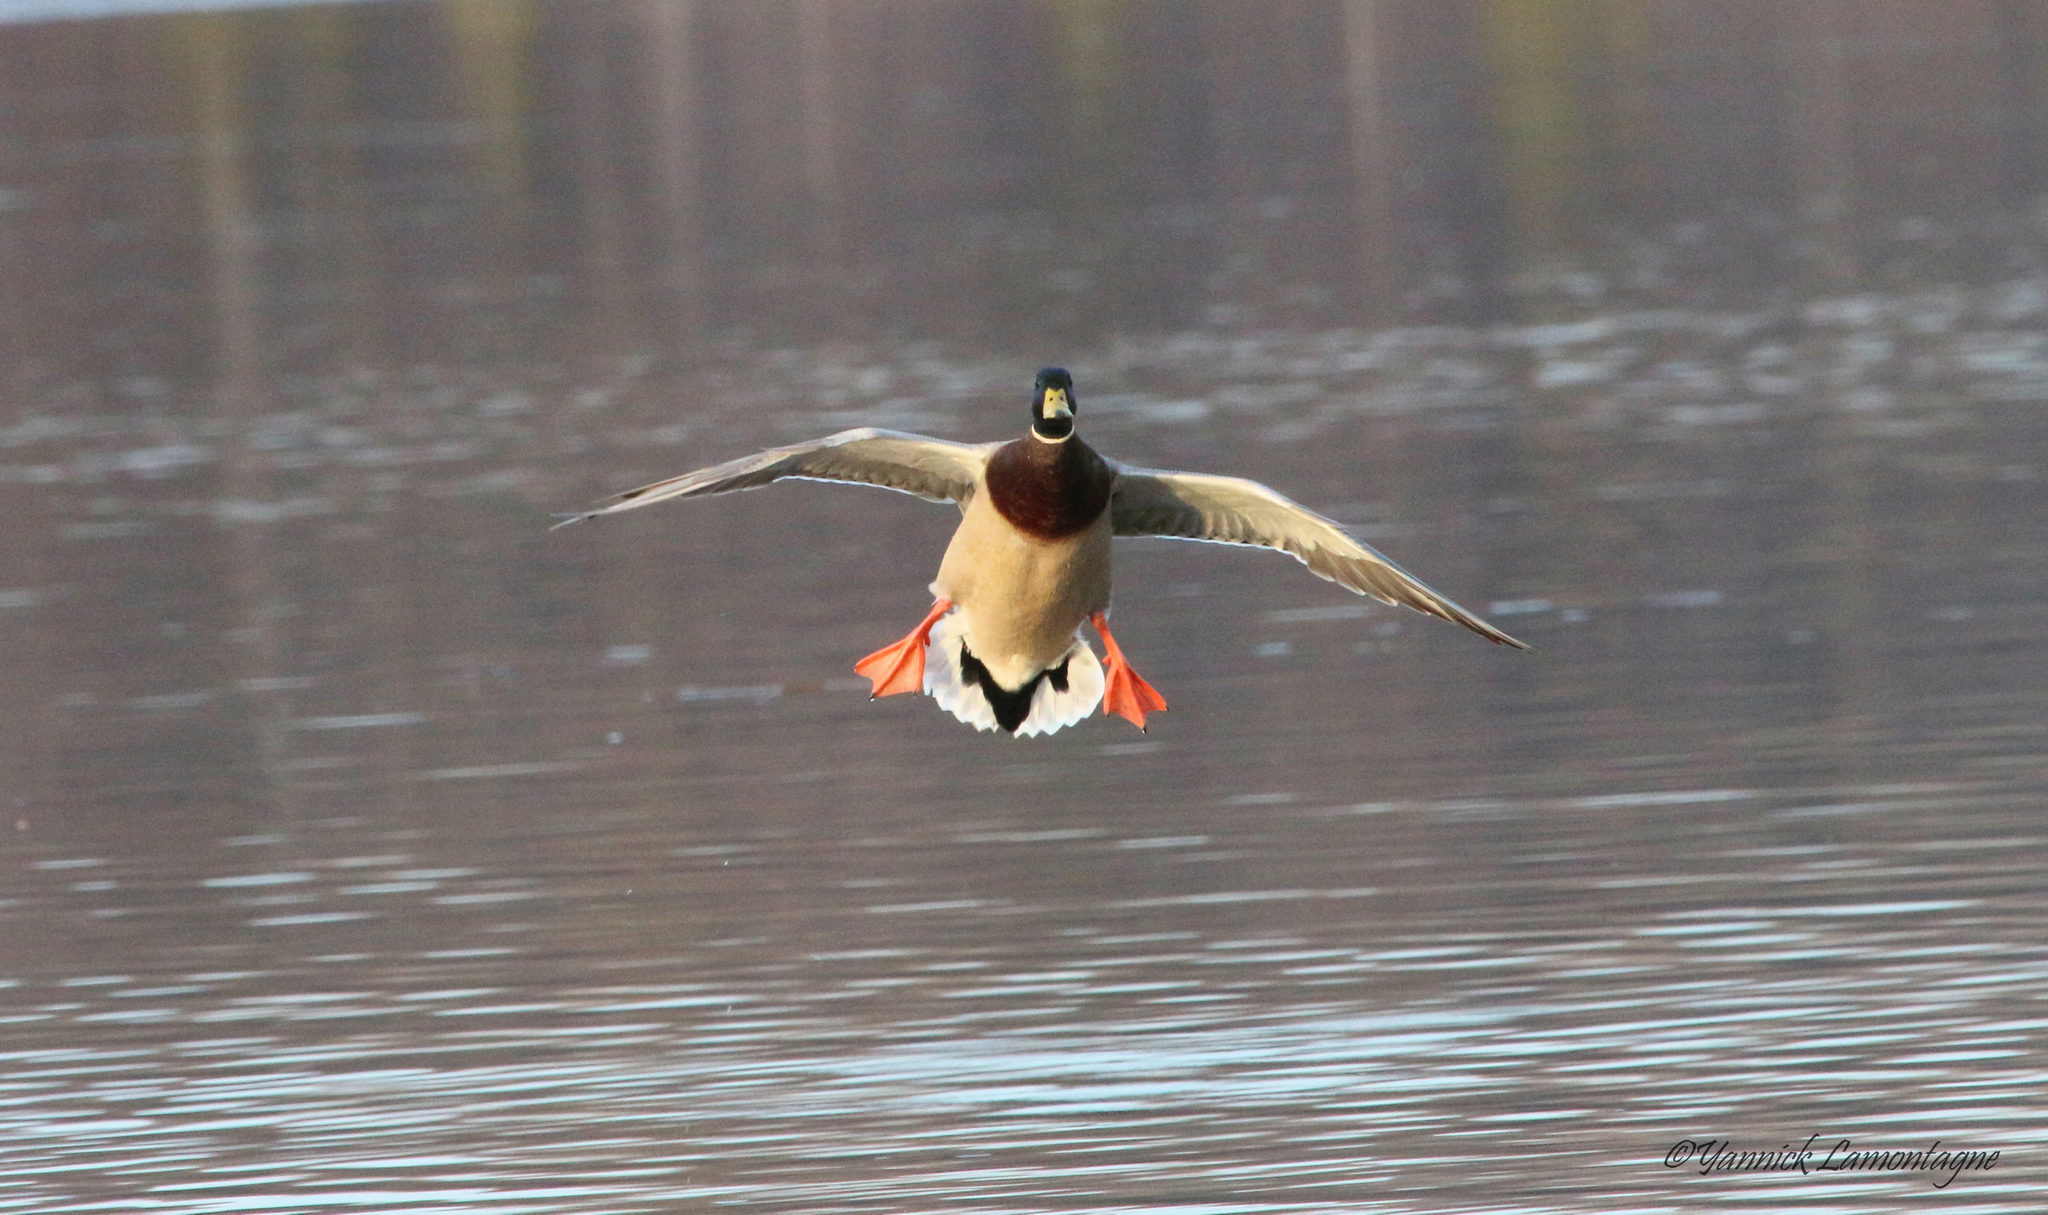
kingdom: Animalia
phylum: Chordata
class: Aves
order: Anseriformes
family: Anatidae
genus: Anas
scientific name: Anas platyrhynchos
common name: Mallard
